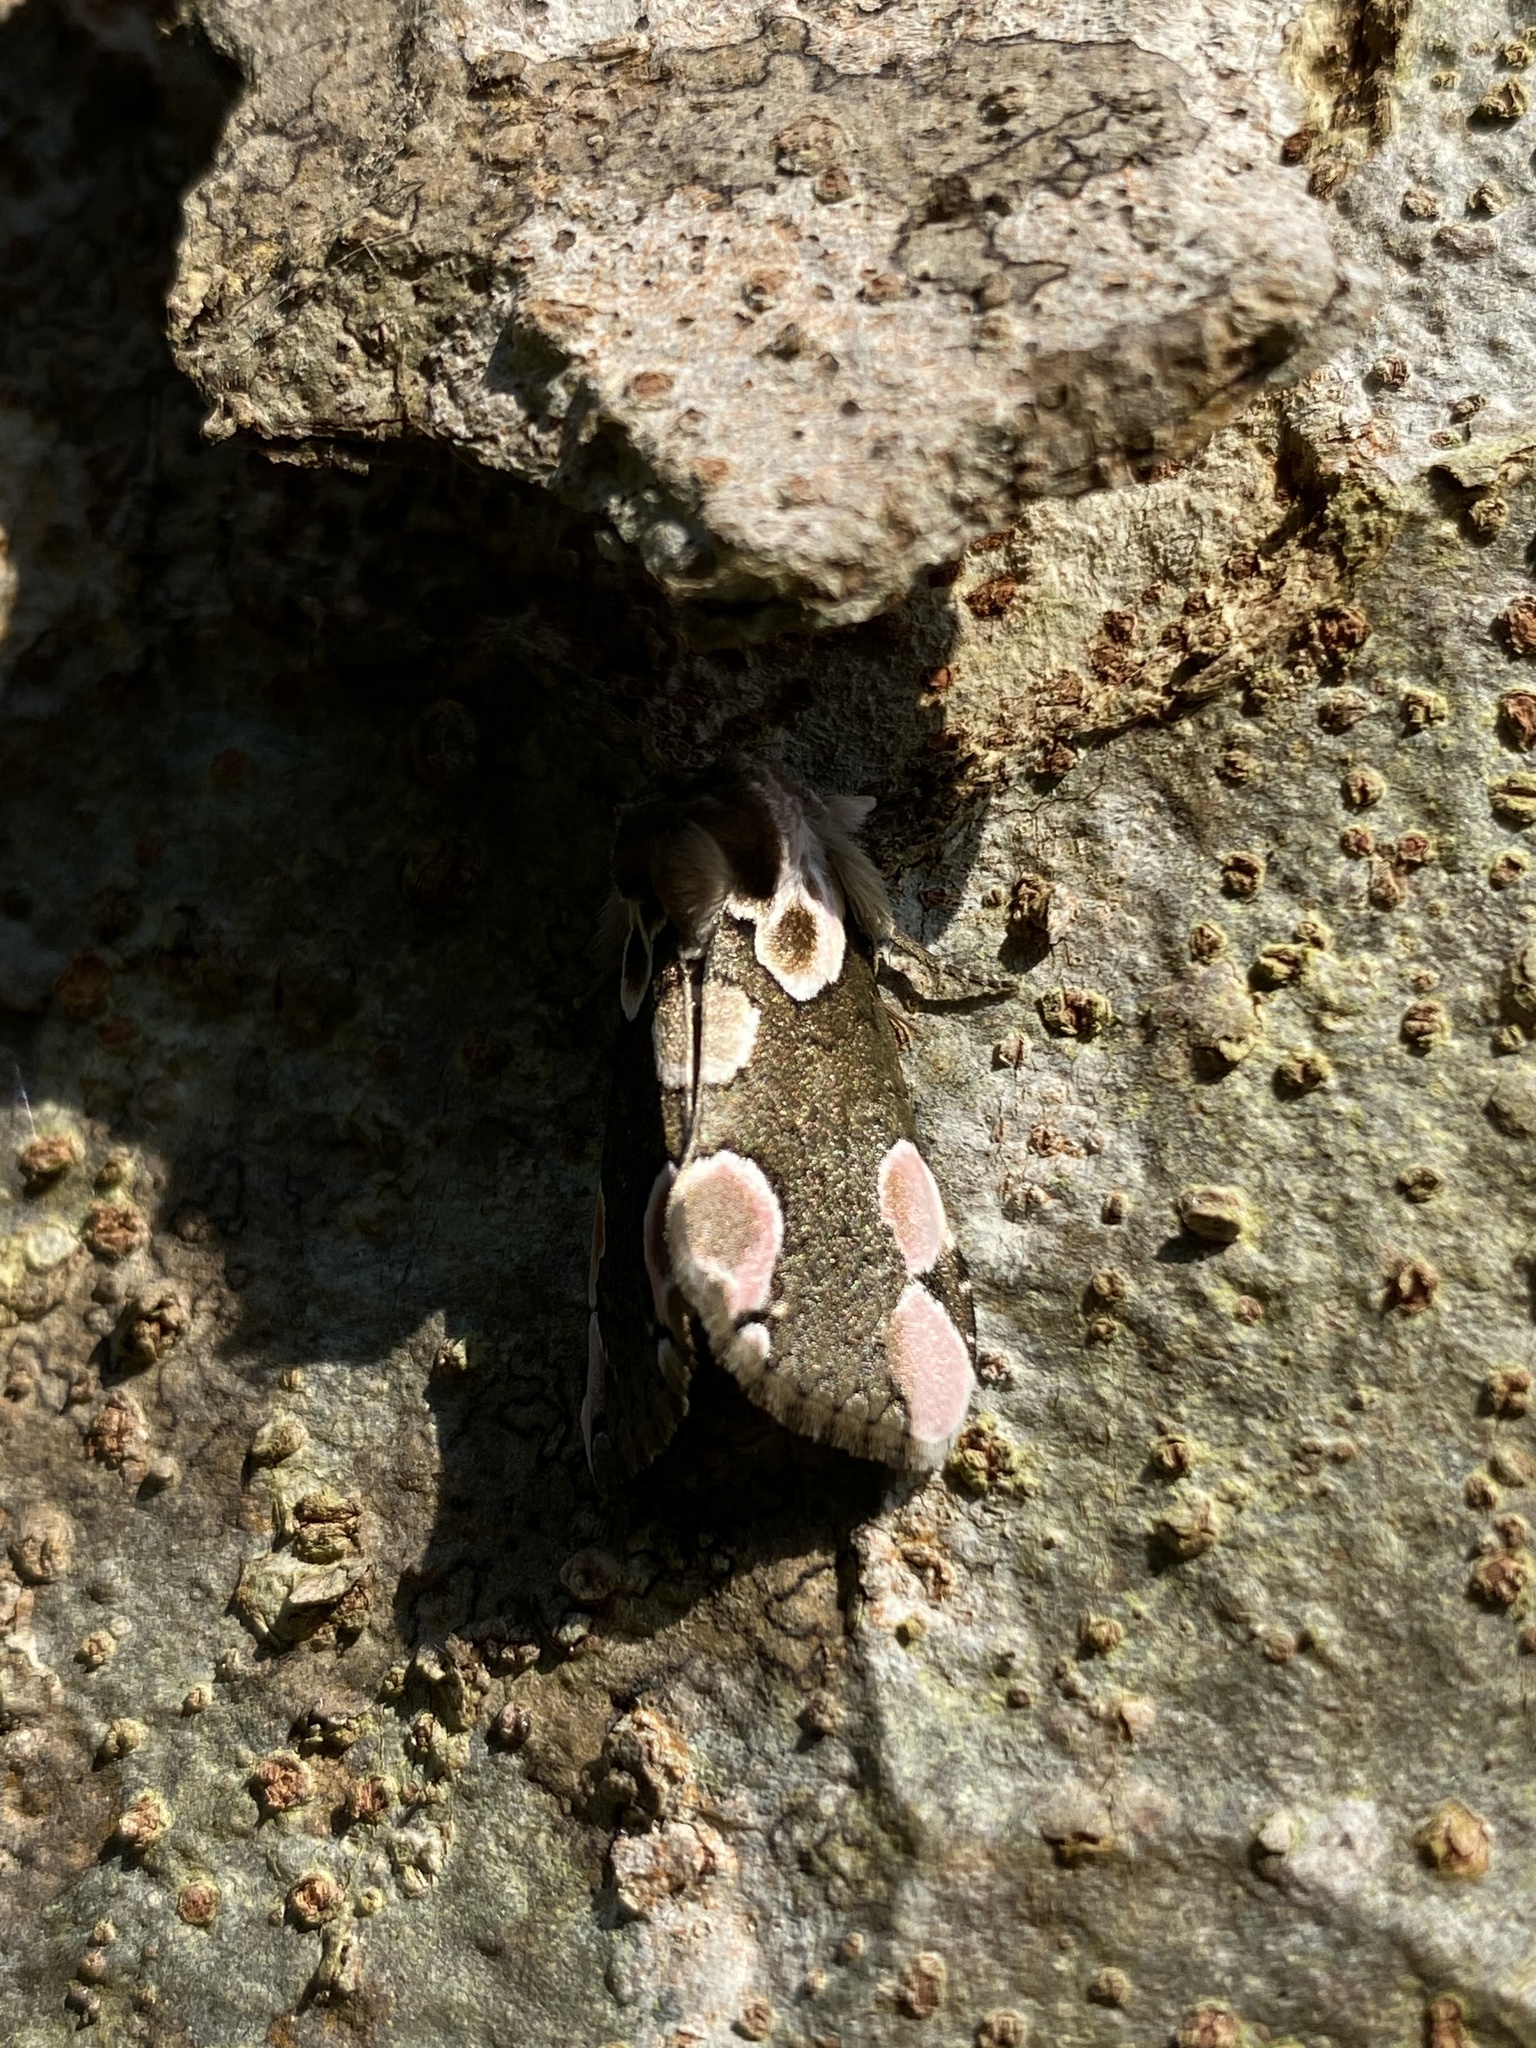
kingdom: Animalia
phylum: Arthropoda
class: Insecta
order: Lepidoptera
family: Drepanidae
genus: Thyatira
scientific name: Thyatira batis
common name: Peach blossom
